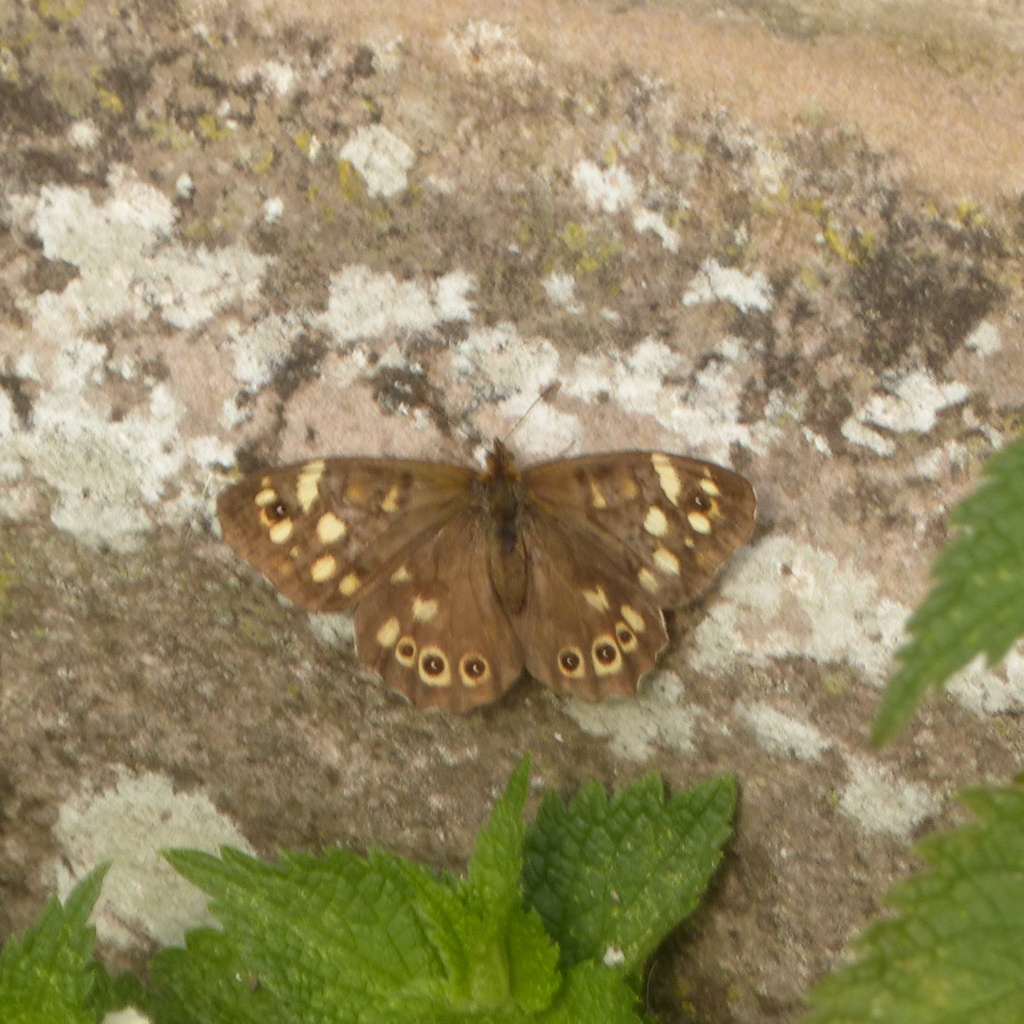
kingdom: Animalia
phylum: Arthropoda
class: Insecta
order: Lepidoptera
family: Nymphalidae
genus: Pararge
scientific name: Pararge aegeria
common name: Speckled wood
